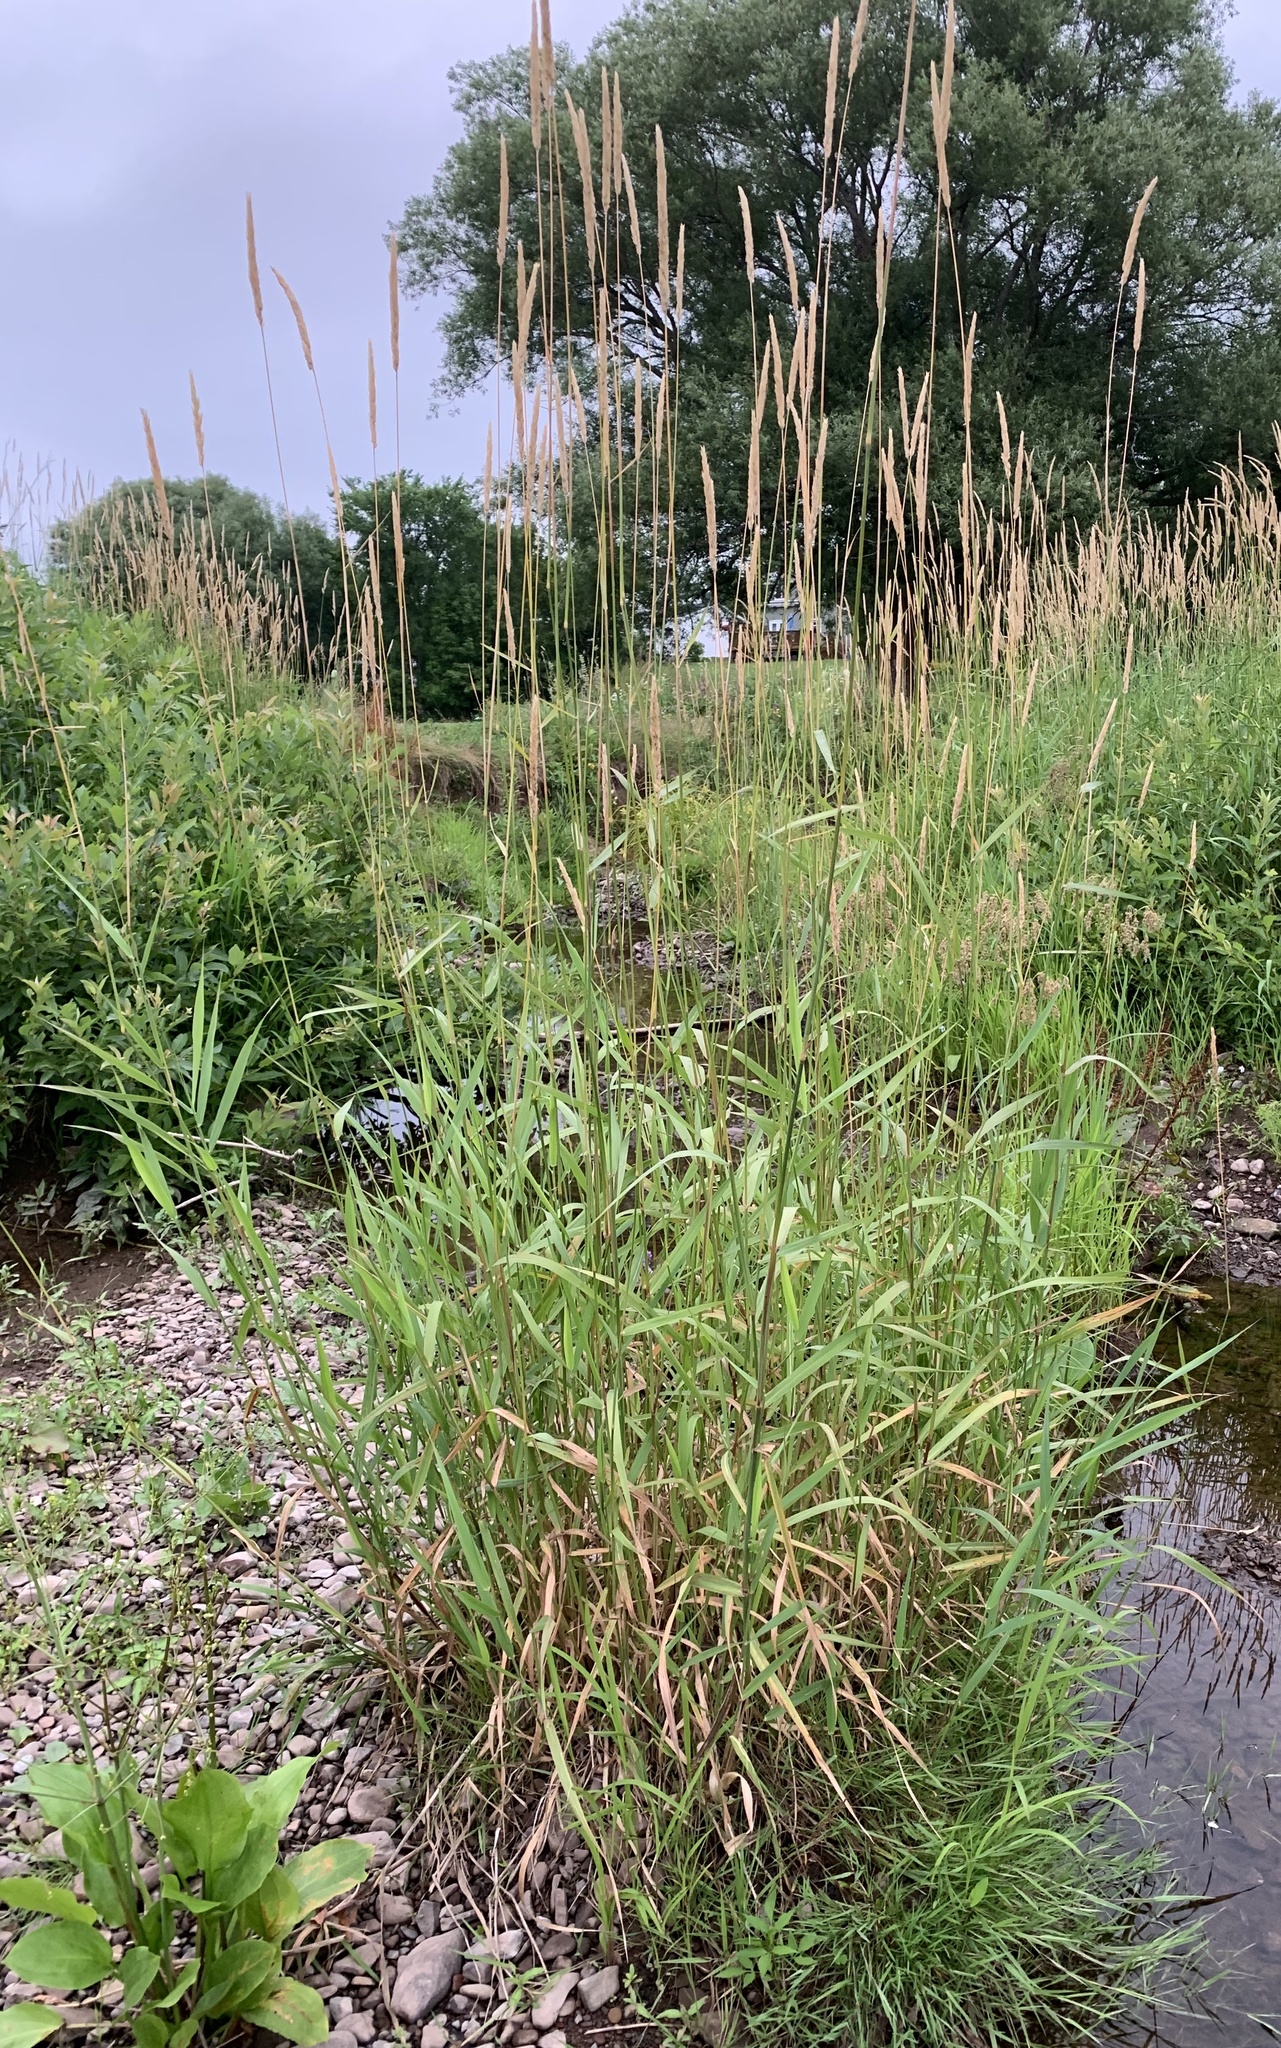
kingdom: Plantae
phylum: Tracheophyta
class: Liliopsida
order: Poales
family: Poaceae
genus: Phalaris
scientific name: Phalaris arundinacea
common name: Reed canary-grass
